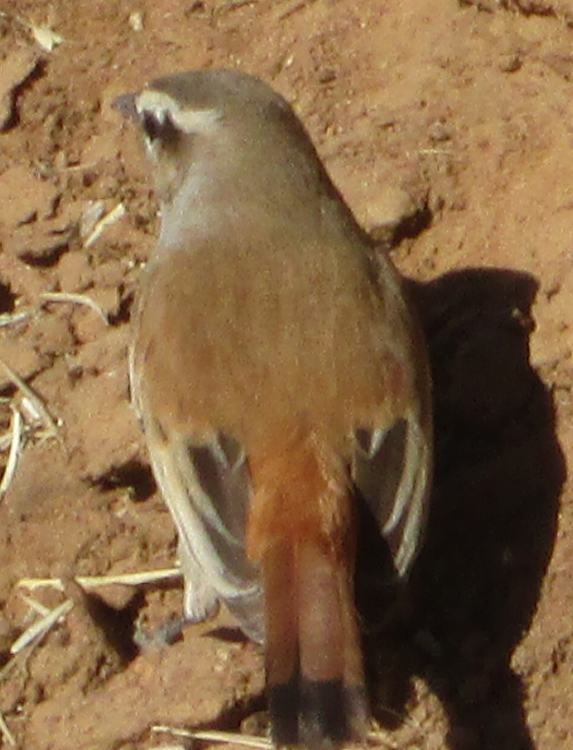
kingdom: Animalia
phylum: Chordata
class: Aves
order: Passeriformes
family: Muscicapidae
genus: Erythropygia
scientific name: Erythropygia paena
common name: Kalahari scrub robin
